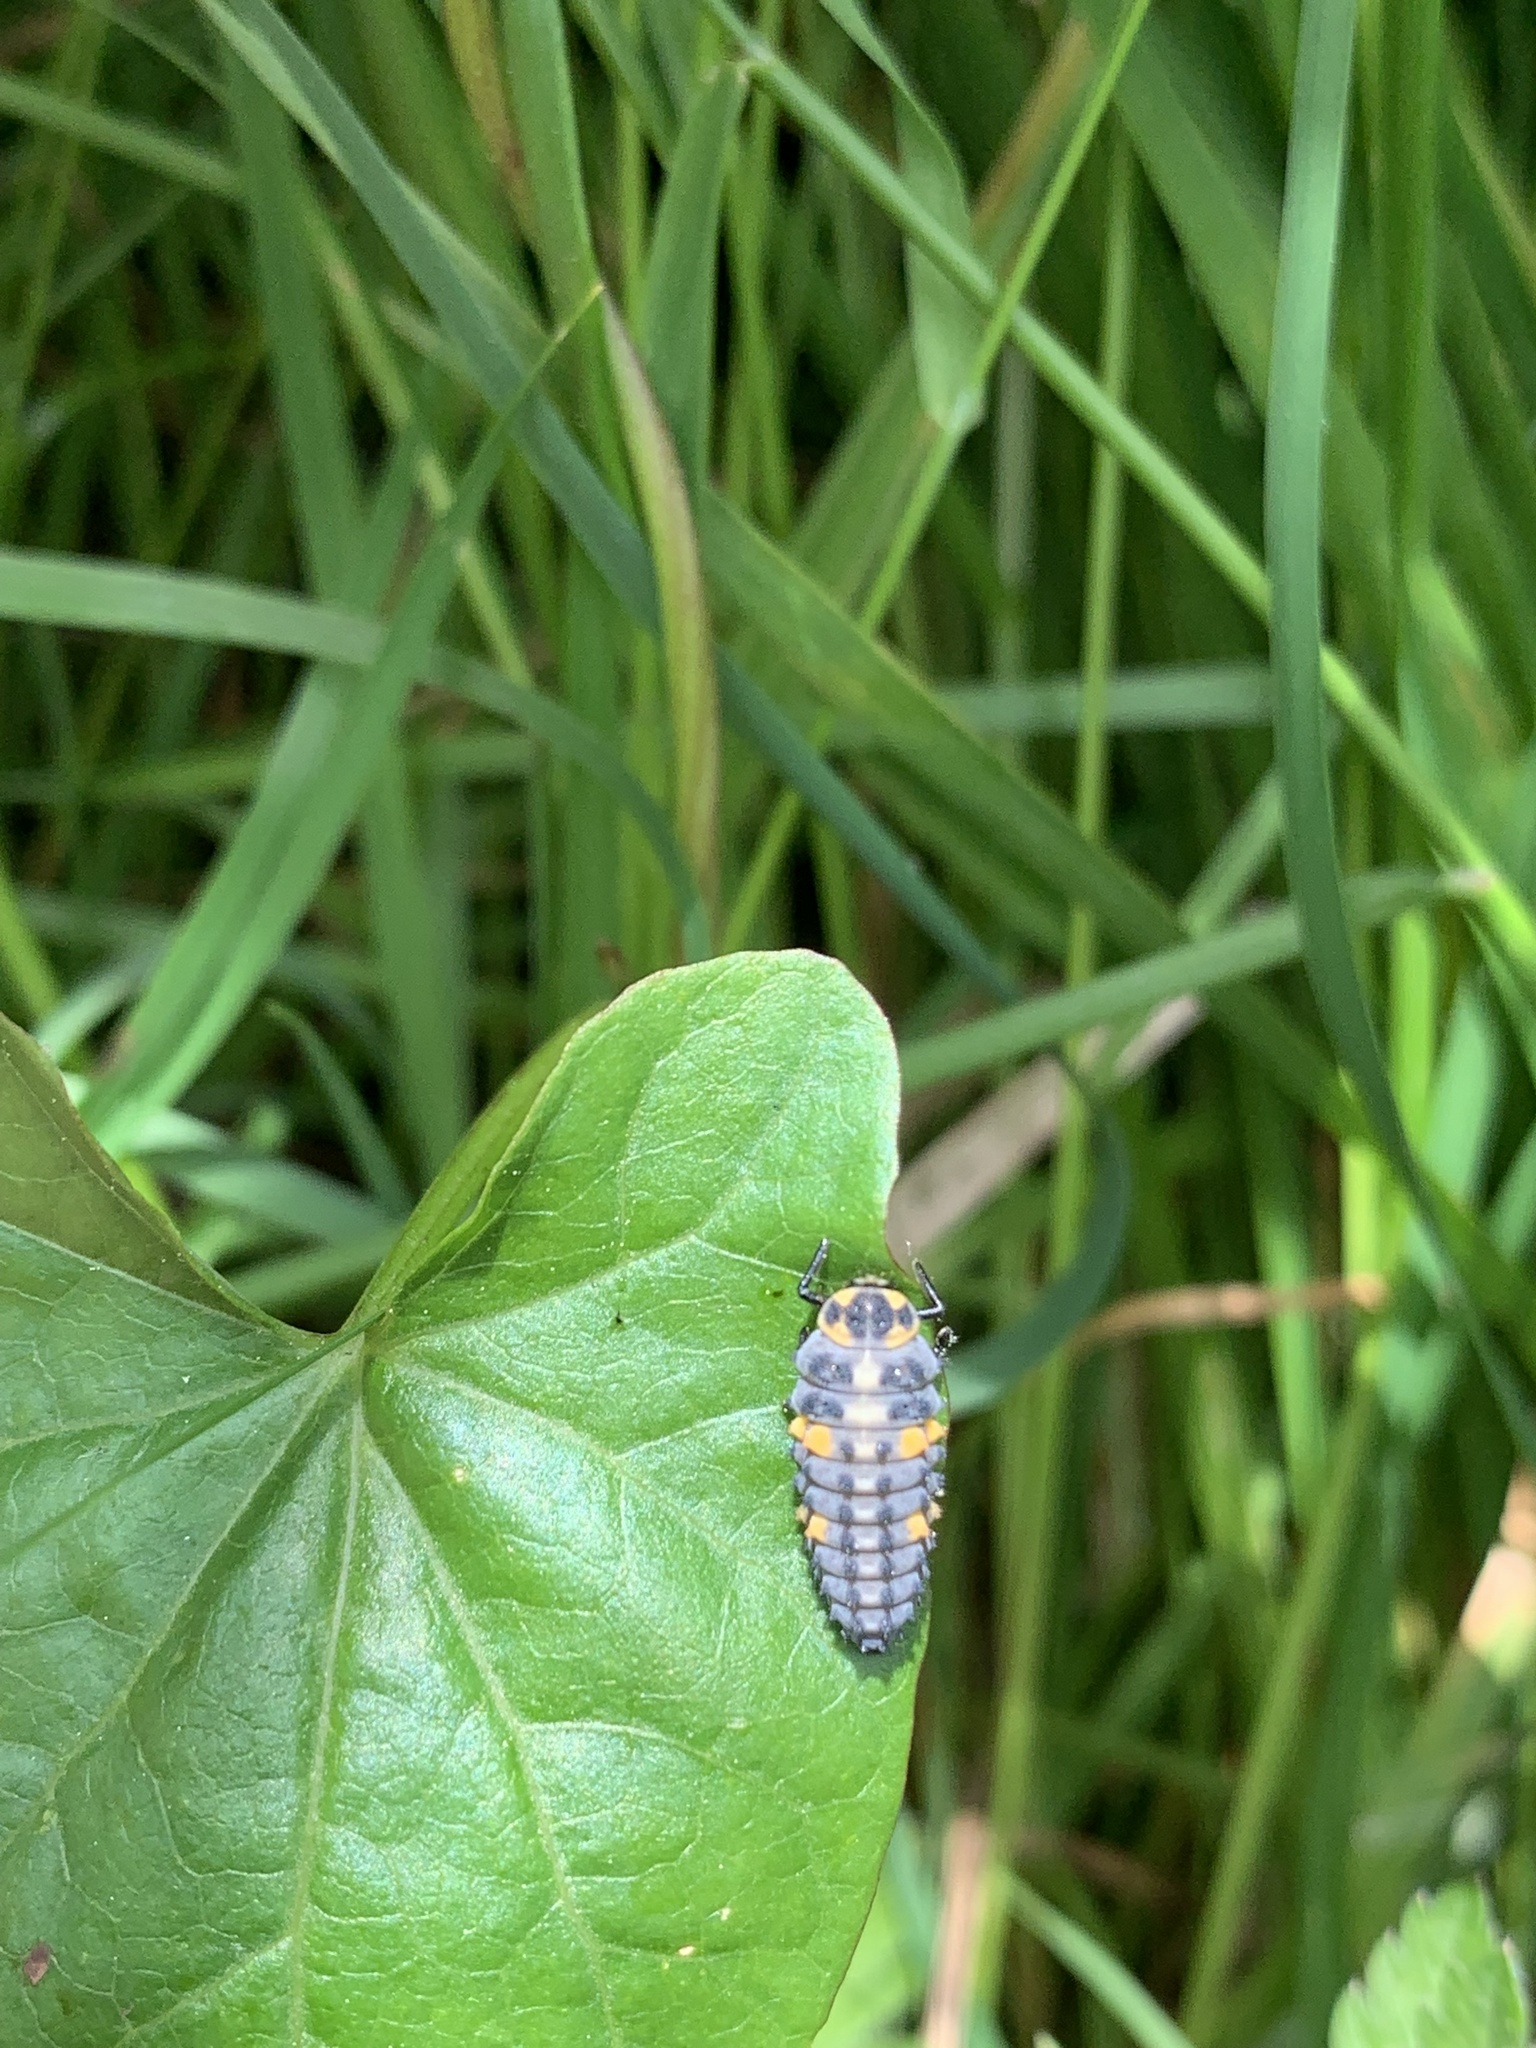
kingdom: Animalia
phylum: Arthropoda
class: Insecta
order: Coleoptera
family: Coccinellidae
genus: Coccinella
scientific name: Coccinella septempunctata
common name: Sevenspotted lady beetle
